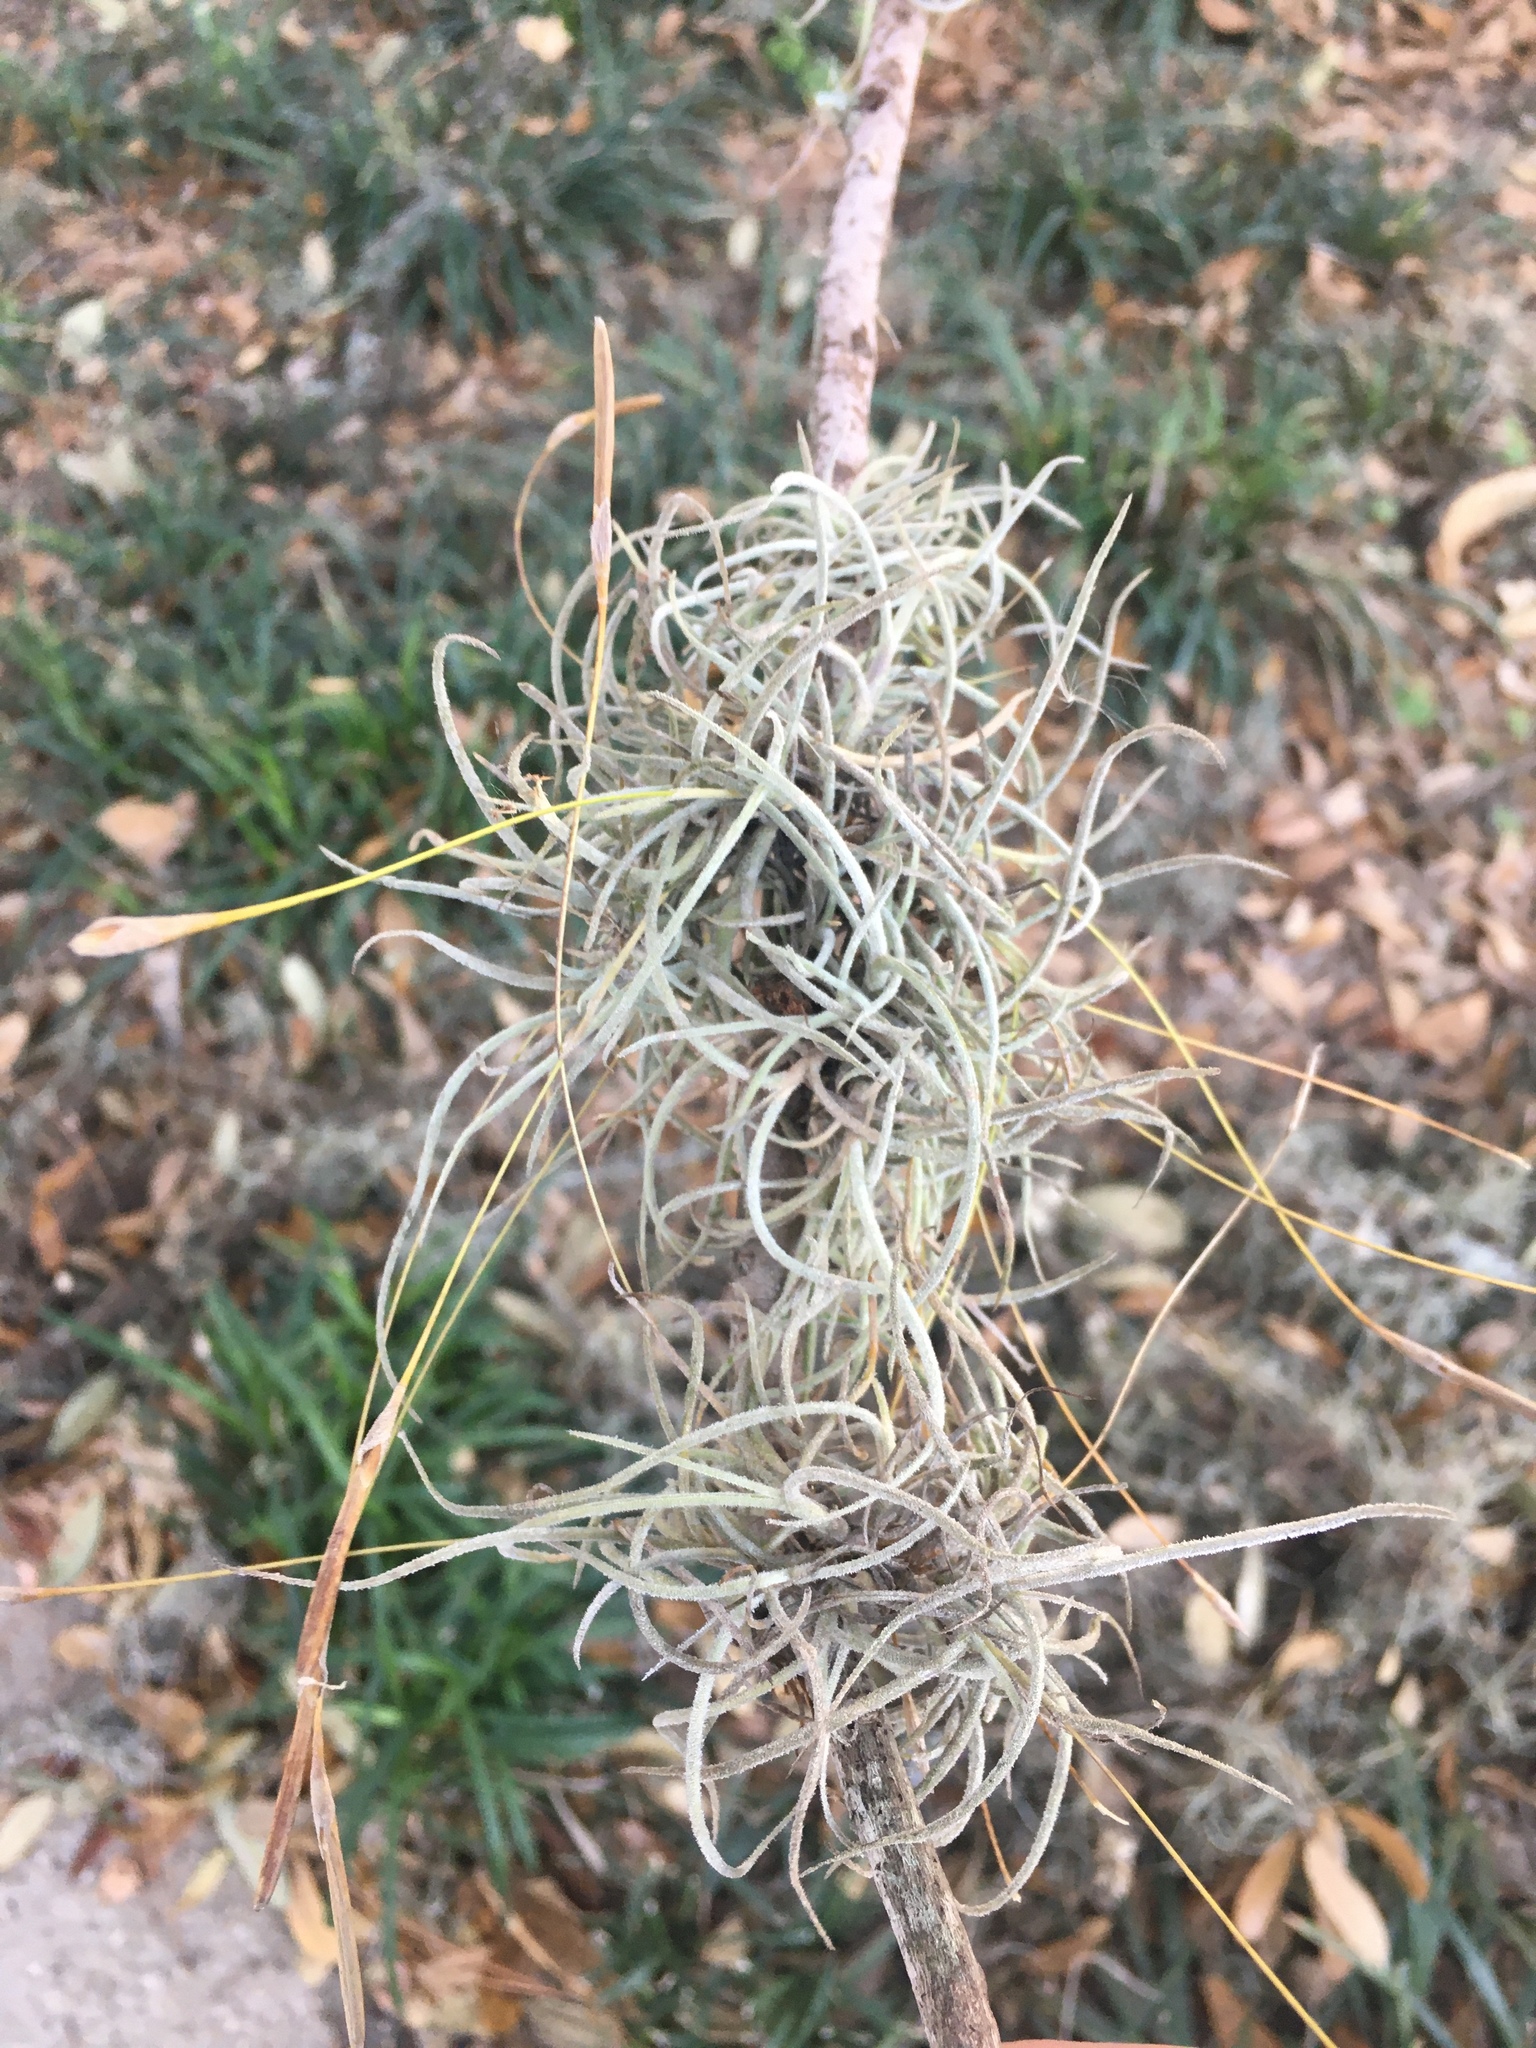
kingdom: Plantae
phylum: Tracheophyta
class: Liliopsida
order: Poales
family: Bromeliaceae
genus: Tillandsia
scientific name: Tillandsia recurvata
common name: Small ballmoss
